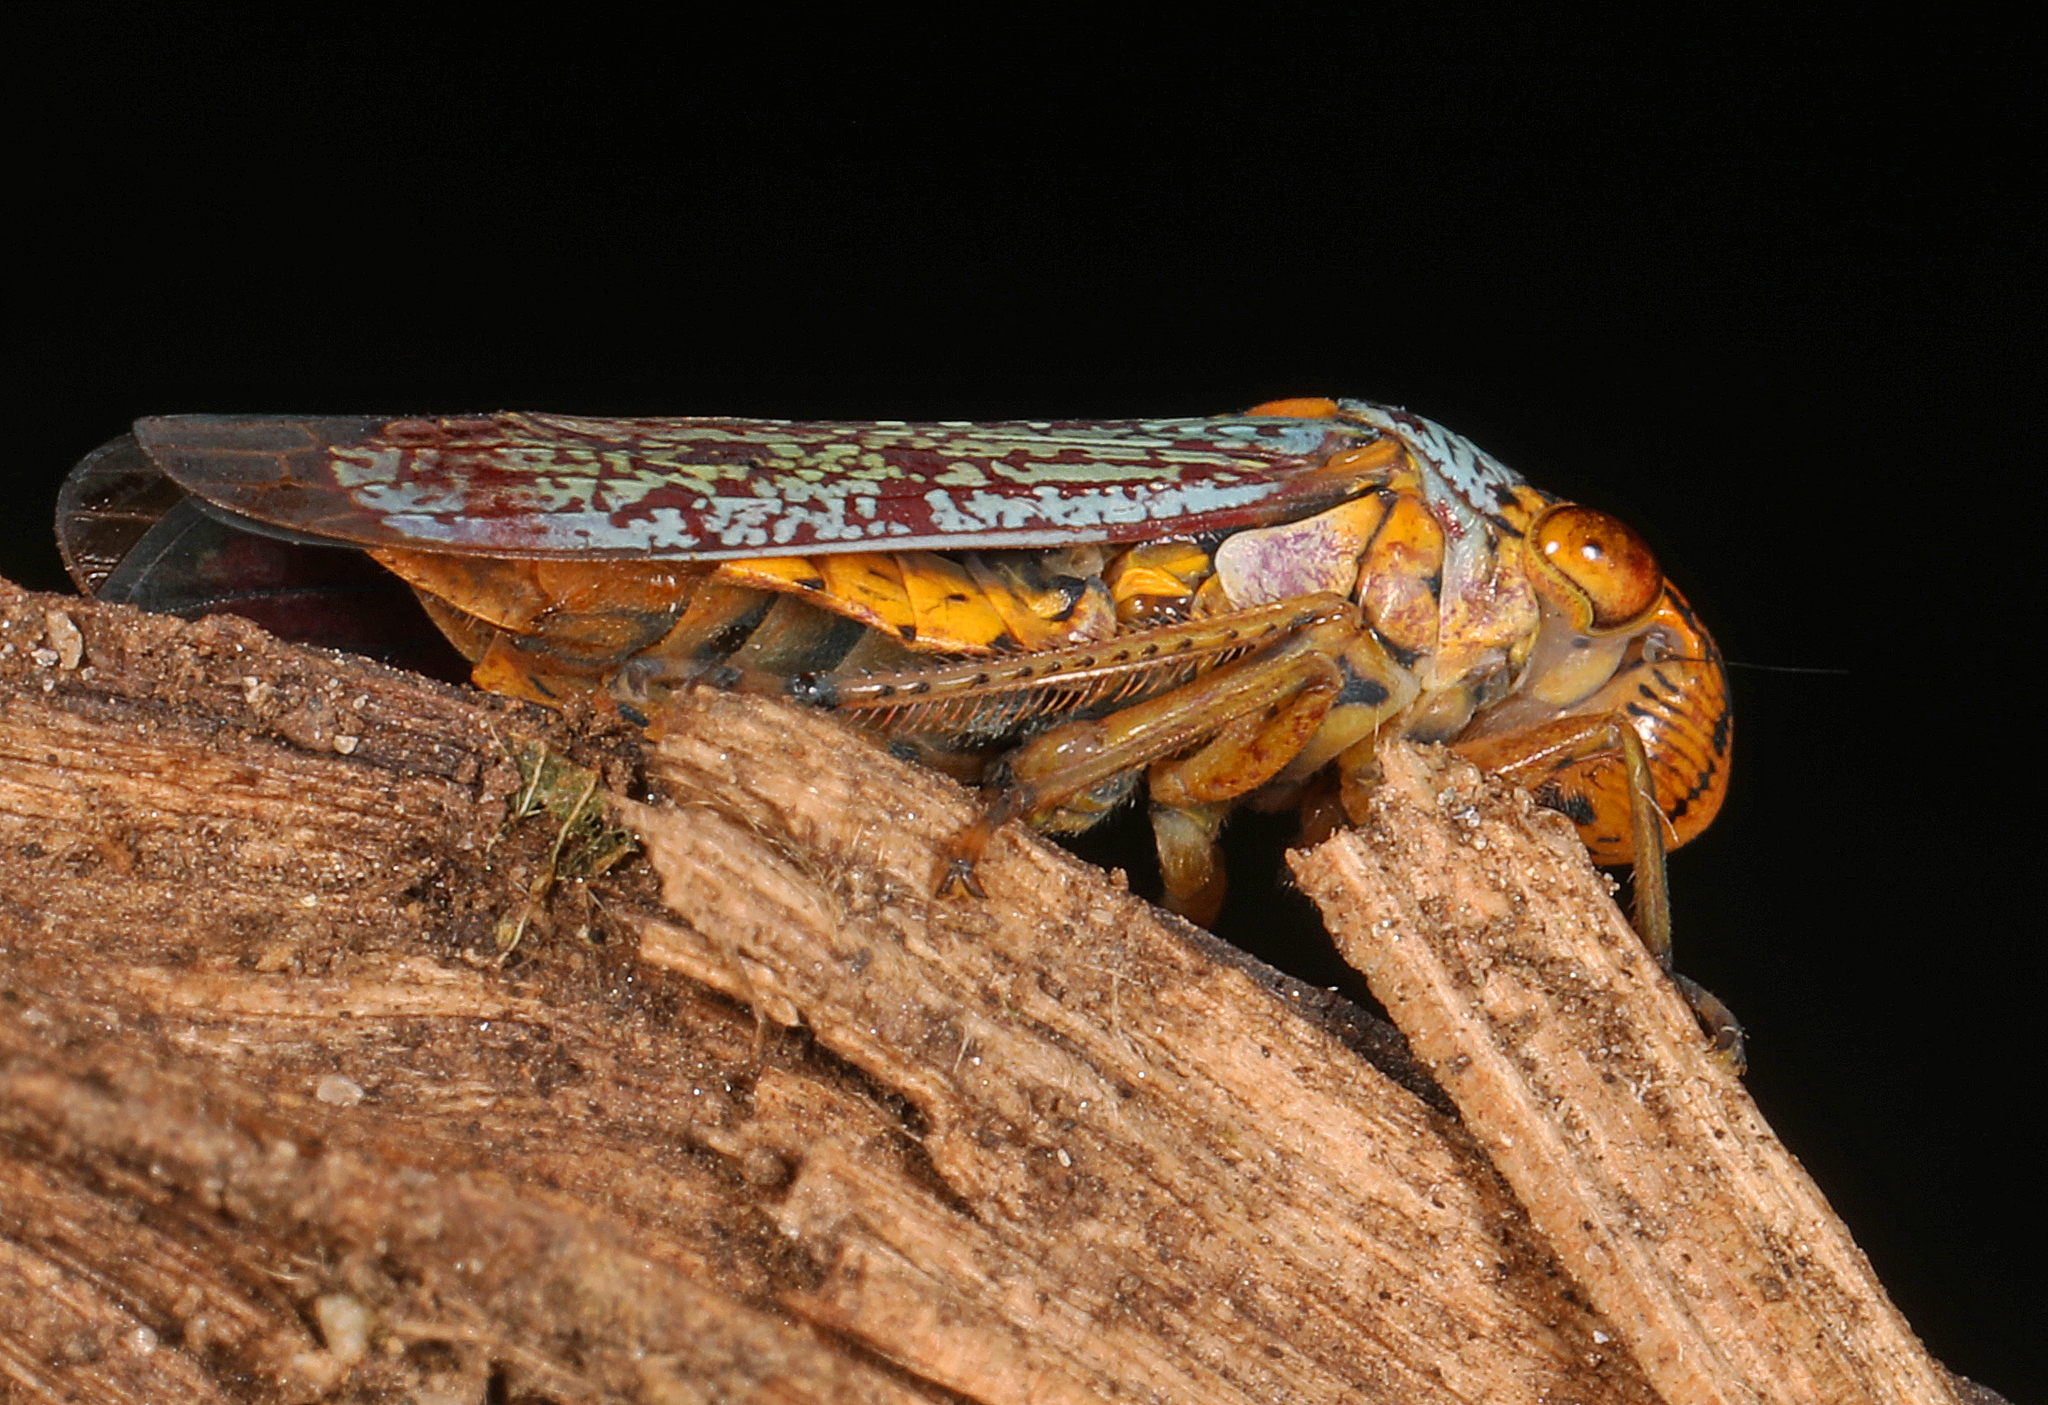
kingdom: Animalia
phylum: Arthropoda
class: Insecta
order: Hemiptera
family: Cicadellidae
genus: Oncometopia
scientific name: Oncometopia orbona
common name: Broad-headed sharpshooter
